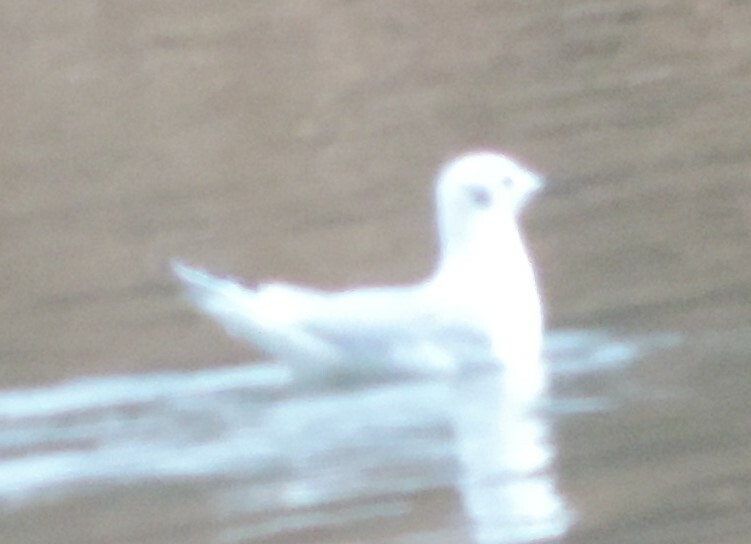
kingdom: Animalia
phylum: Chordata
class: Aves
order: Charadriiformes
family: Laridae
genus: Chroicocephalus
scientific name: Chroicocephalus philadelphia
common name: Bonaparte's gull
